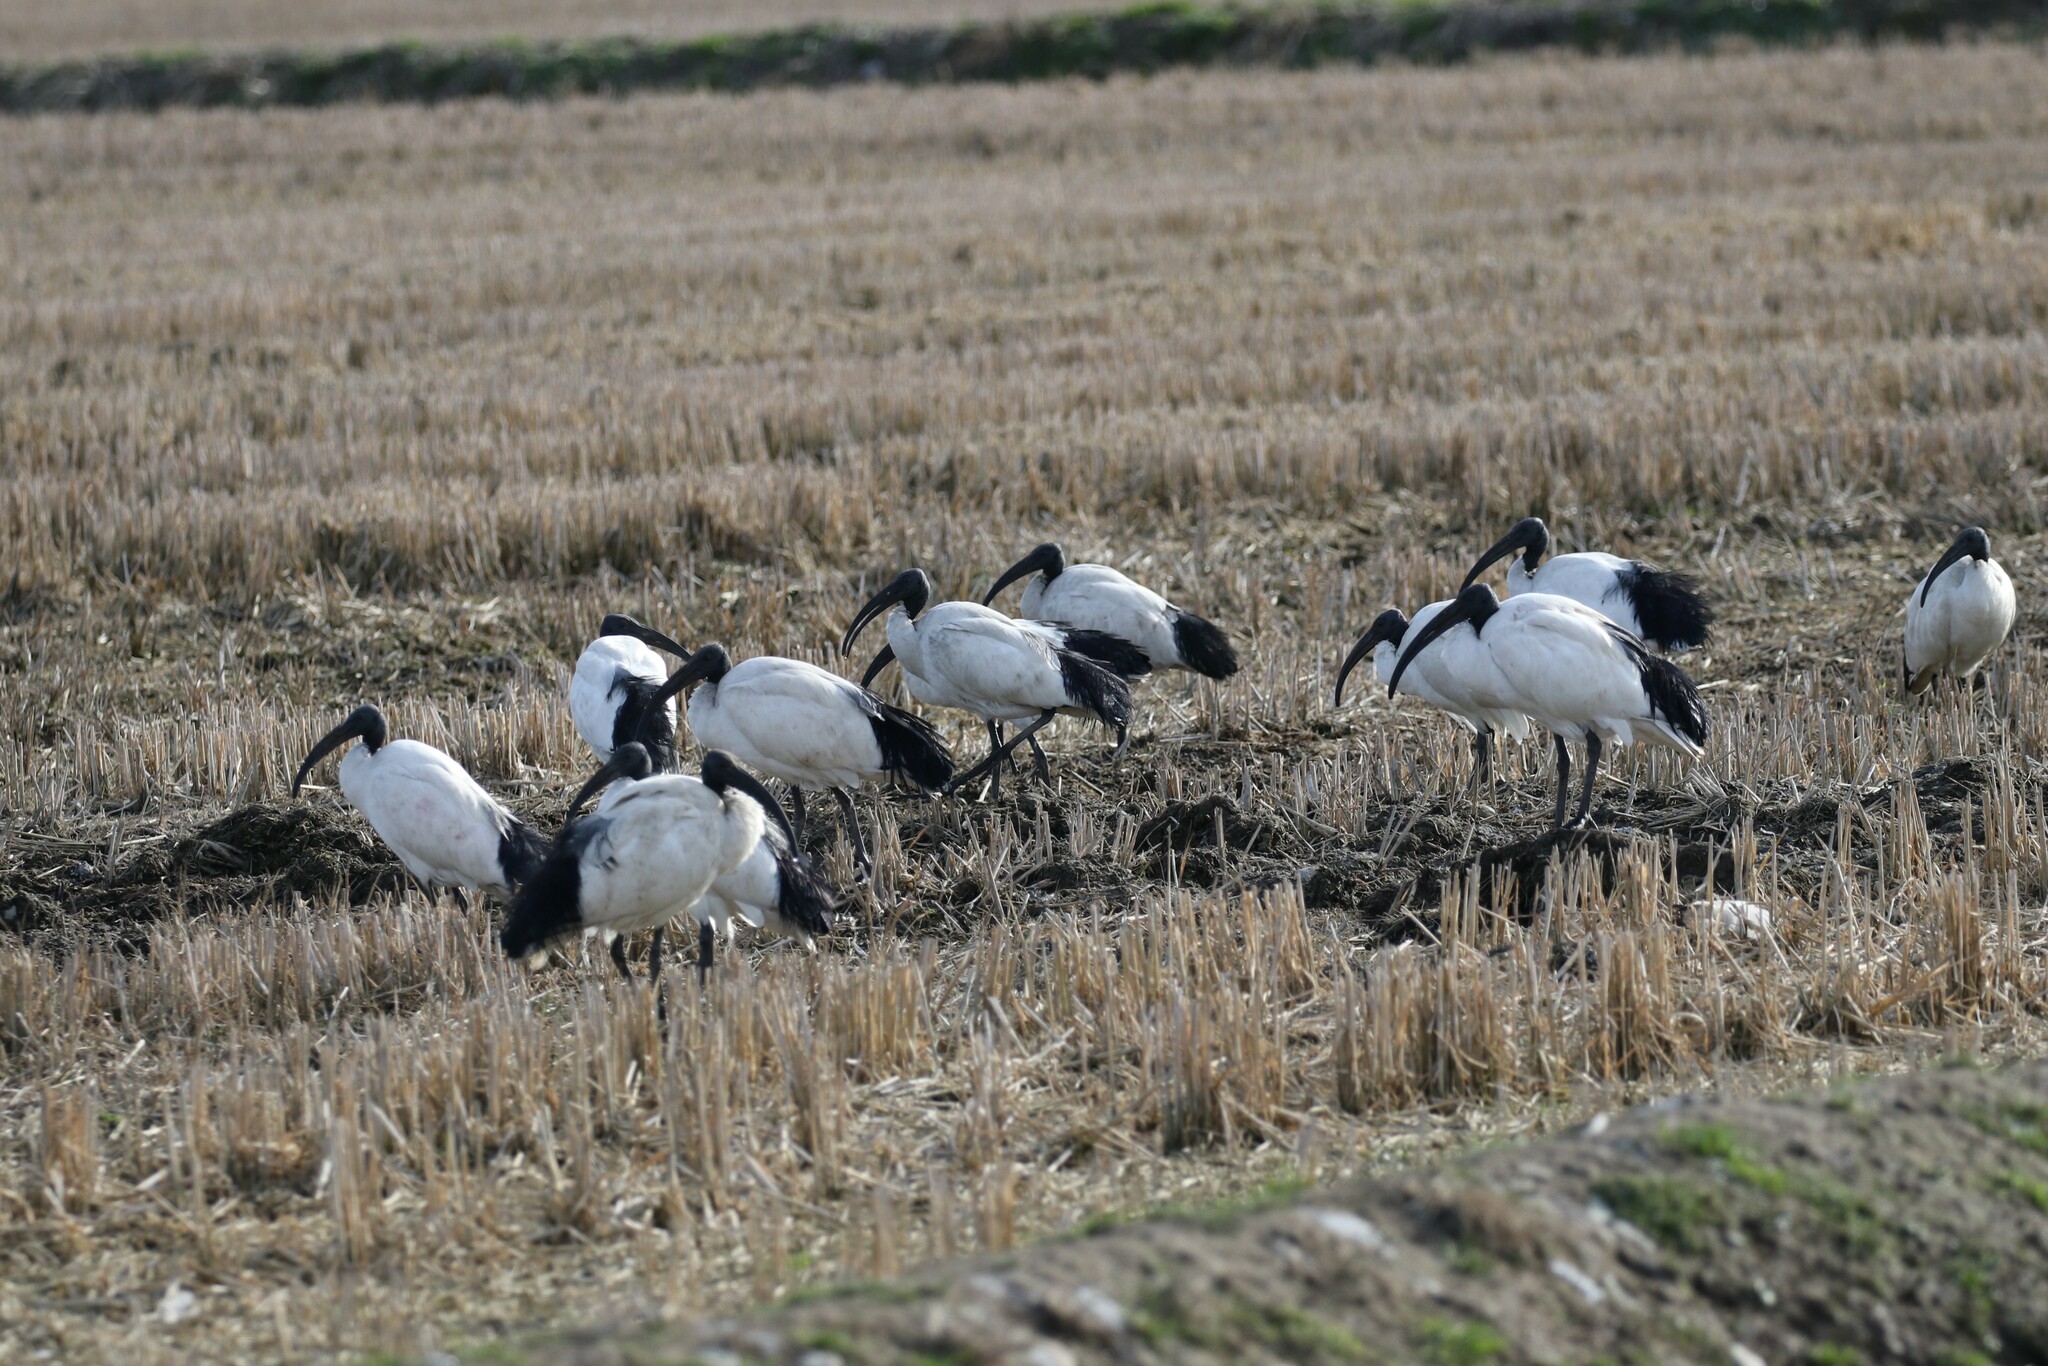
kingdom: Animalia
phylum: Chordata
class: Aves
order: Pelecaniformes
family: Threskiornithidae
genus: Threskiornis
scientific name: Threskiornis aethiopicus
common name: Sacred ibis
